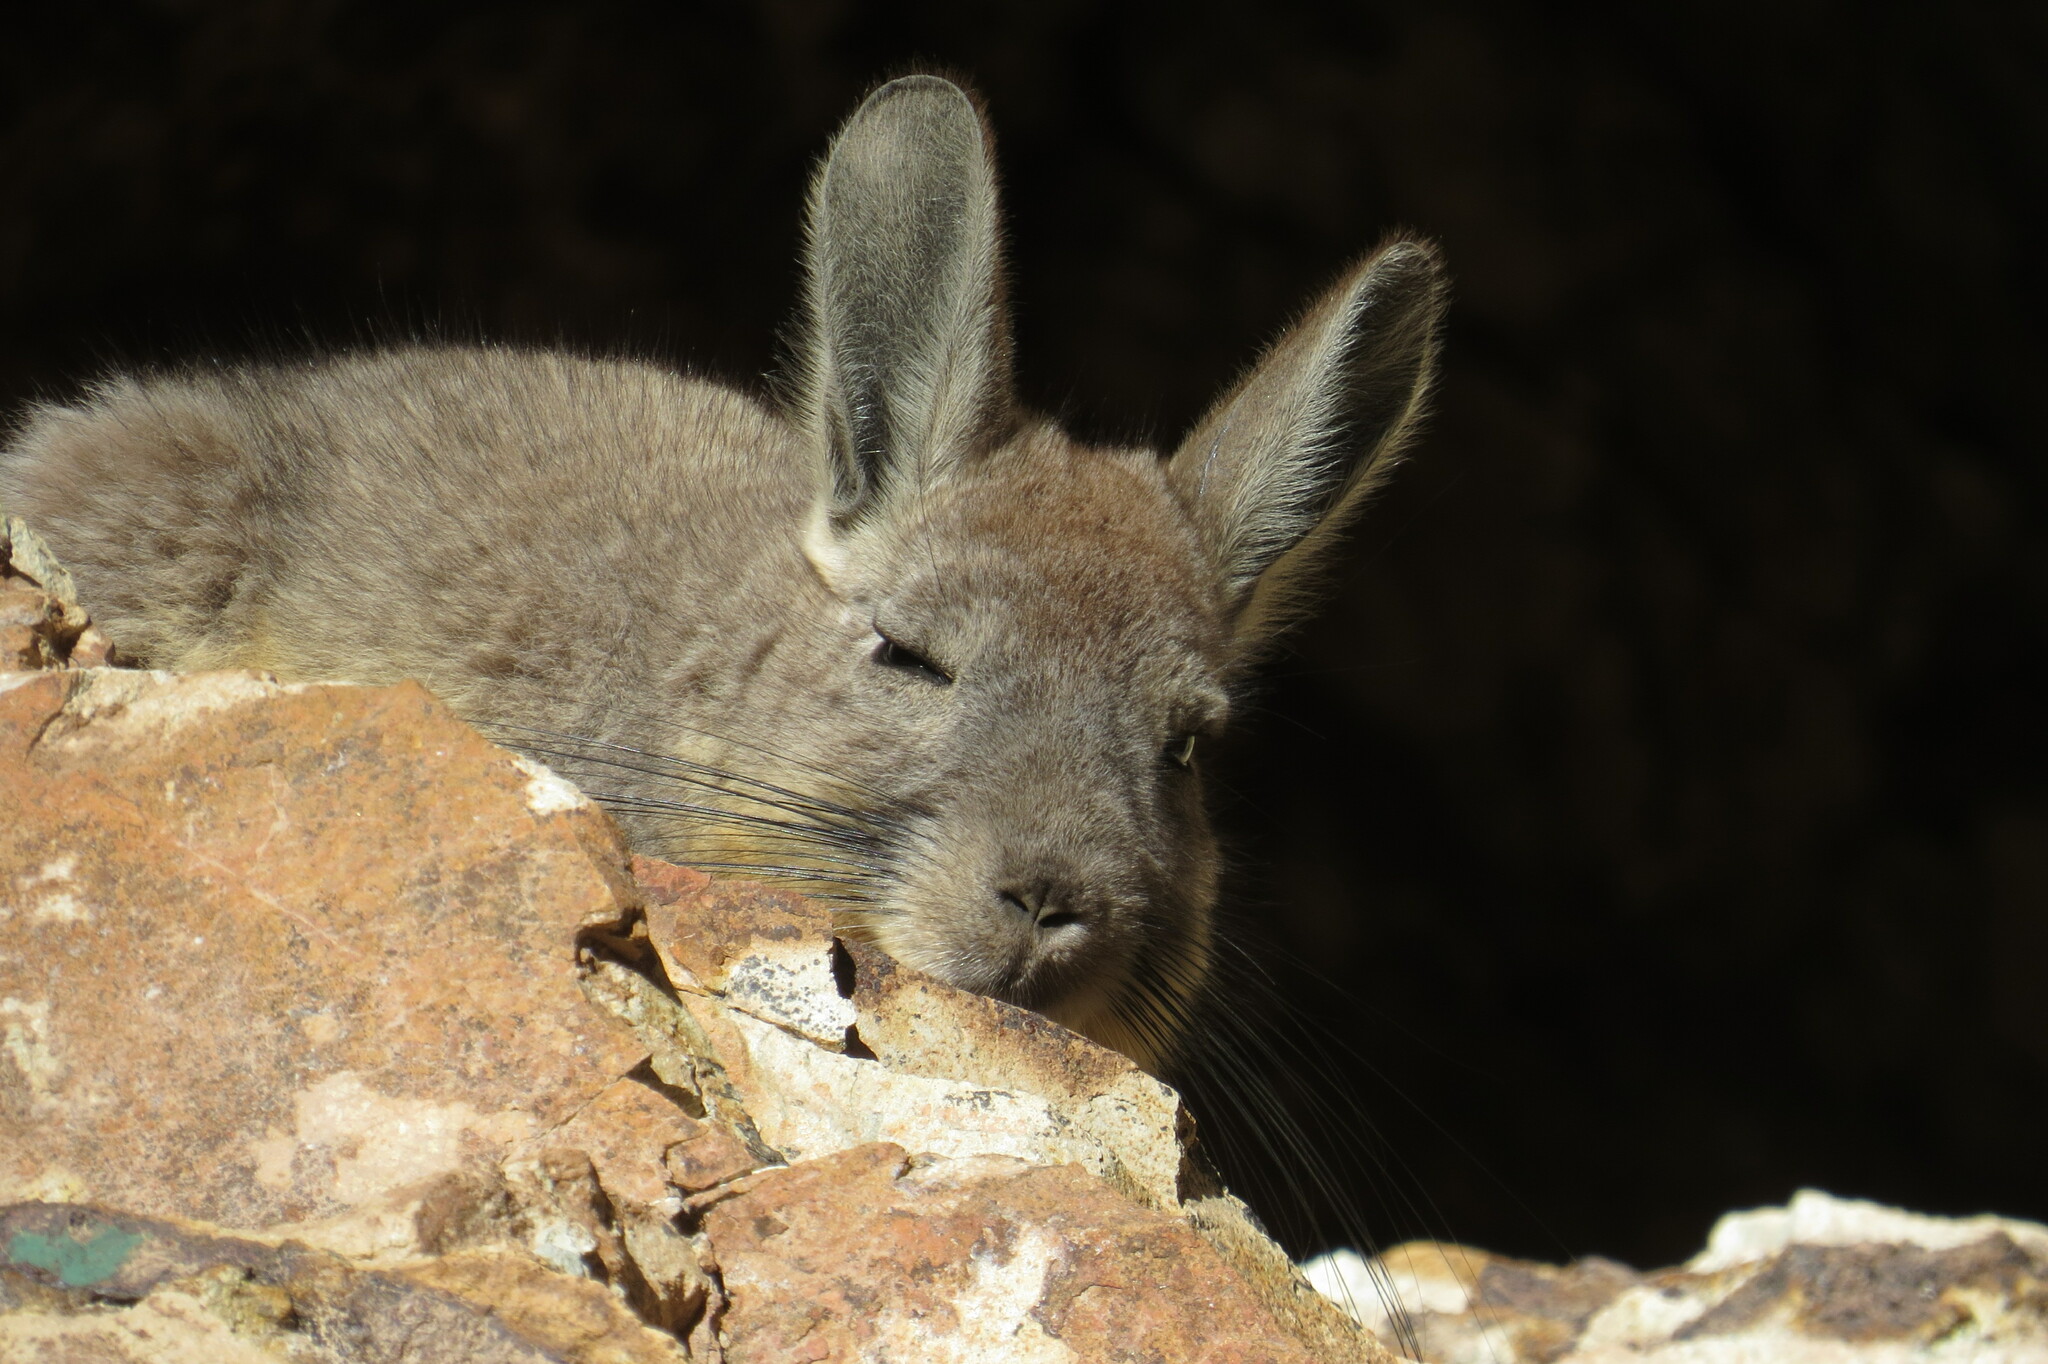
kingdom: Animalia
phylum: Chordata
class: Mammalia
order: Rodentia
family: Chinchillidae
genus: Lagidium
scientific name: Lagidium viscacia
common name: Southern viscacha
